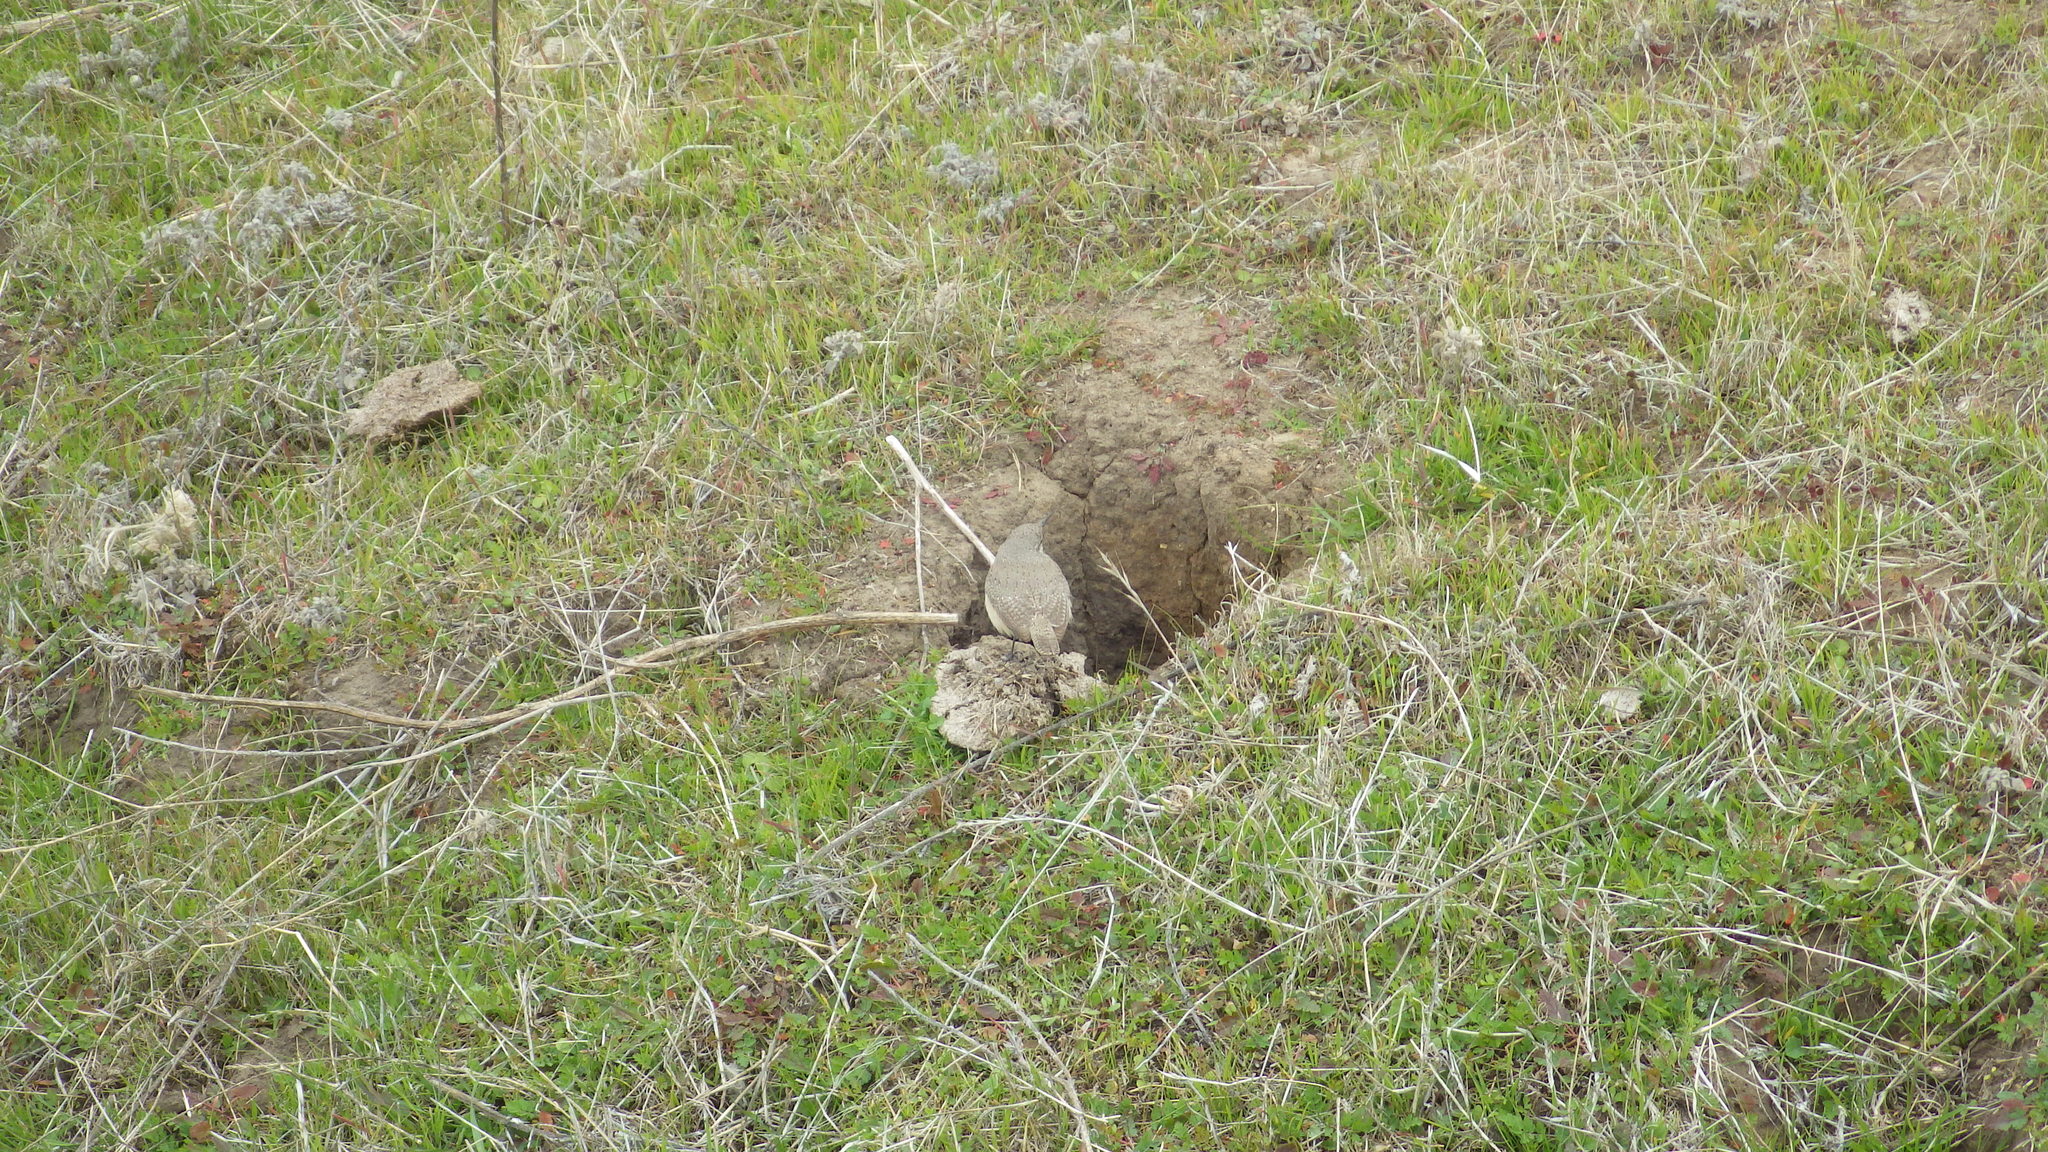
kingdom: Animalia
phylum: Chordata
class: Aves
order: Passeriformes
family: Troglodytidae
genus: Salpinctes
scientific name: Salpinctes obsoletus
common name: Rock wren
